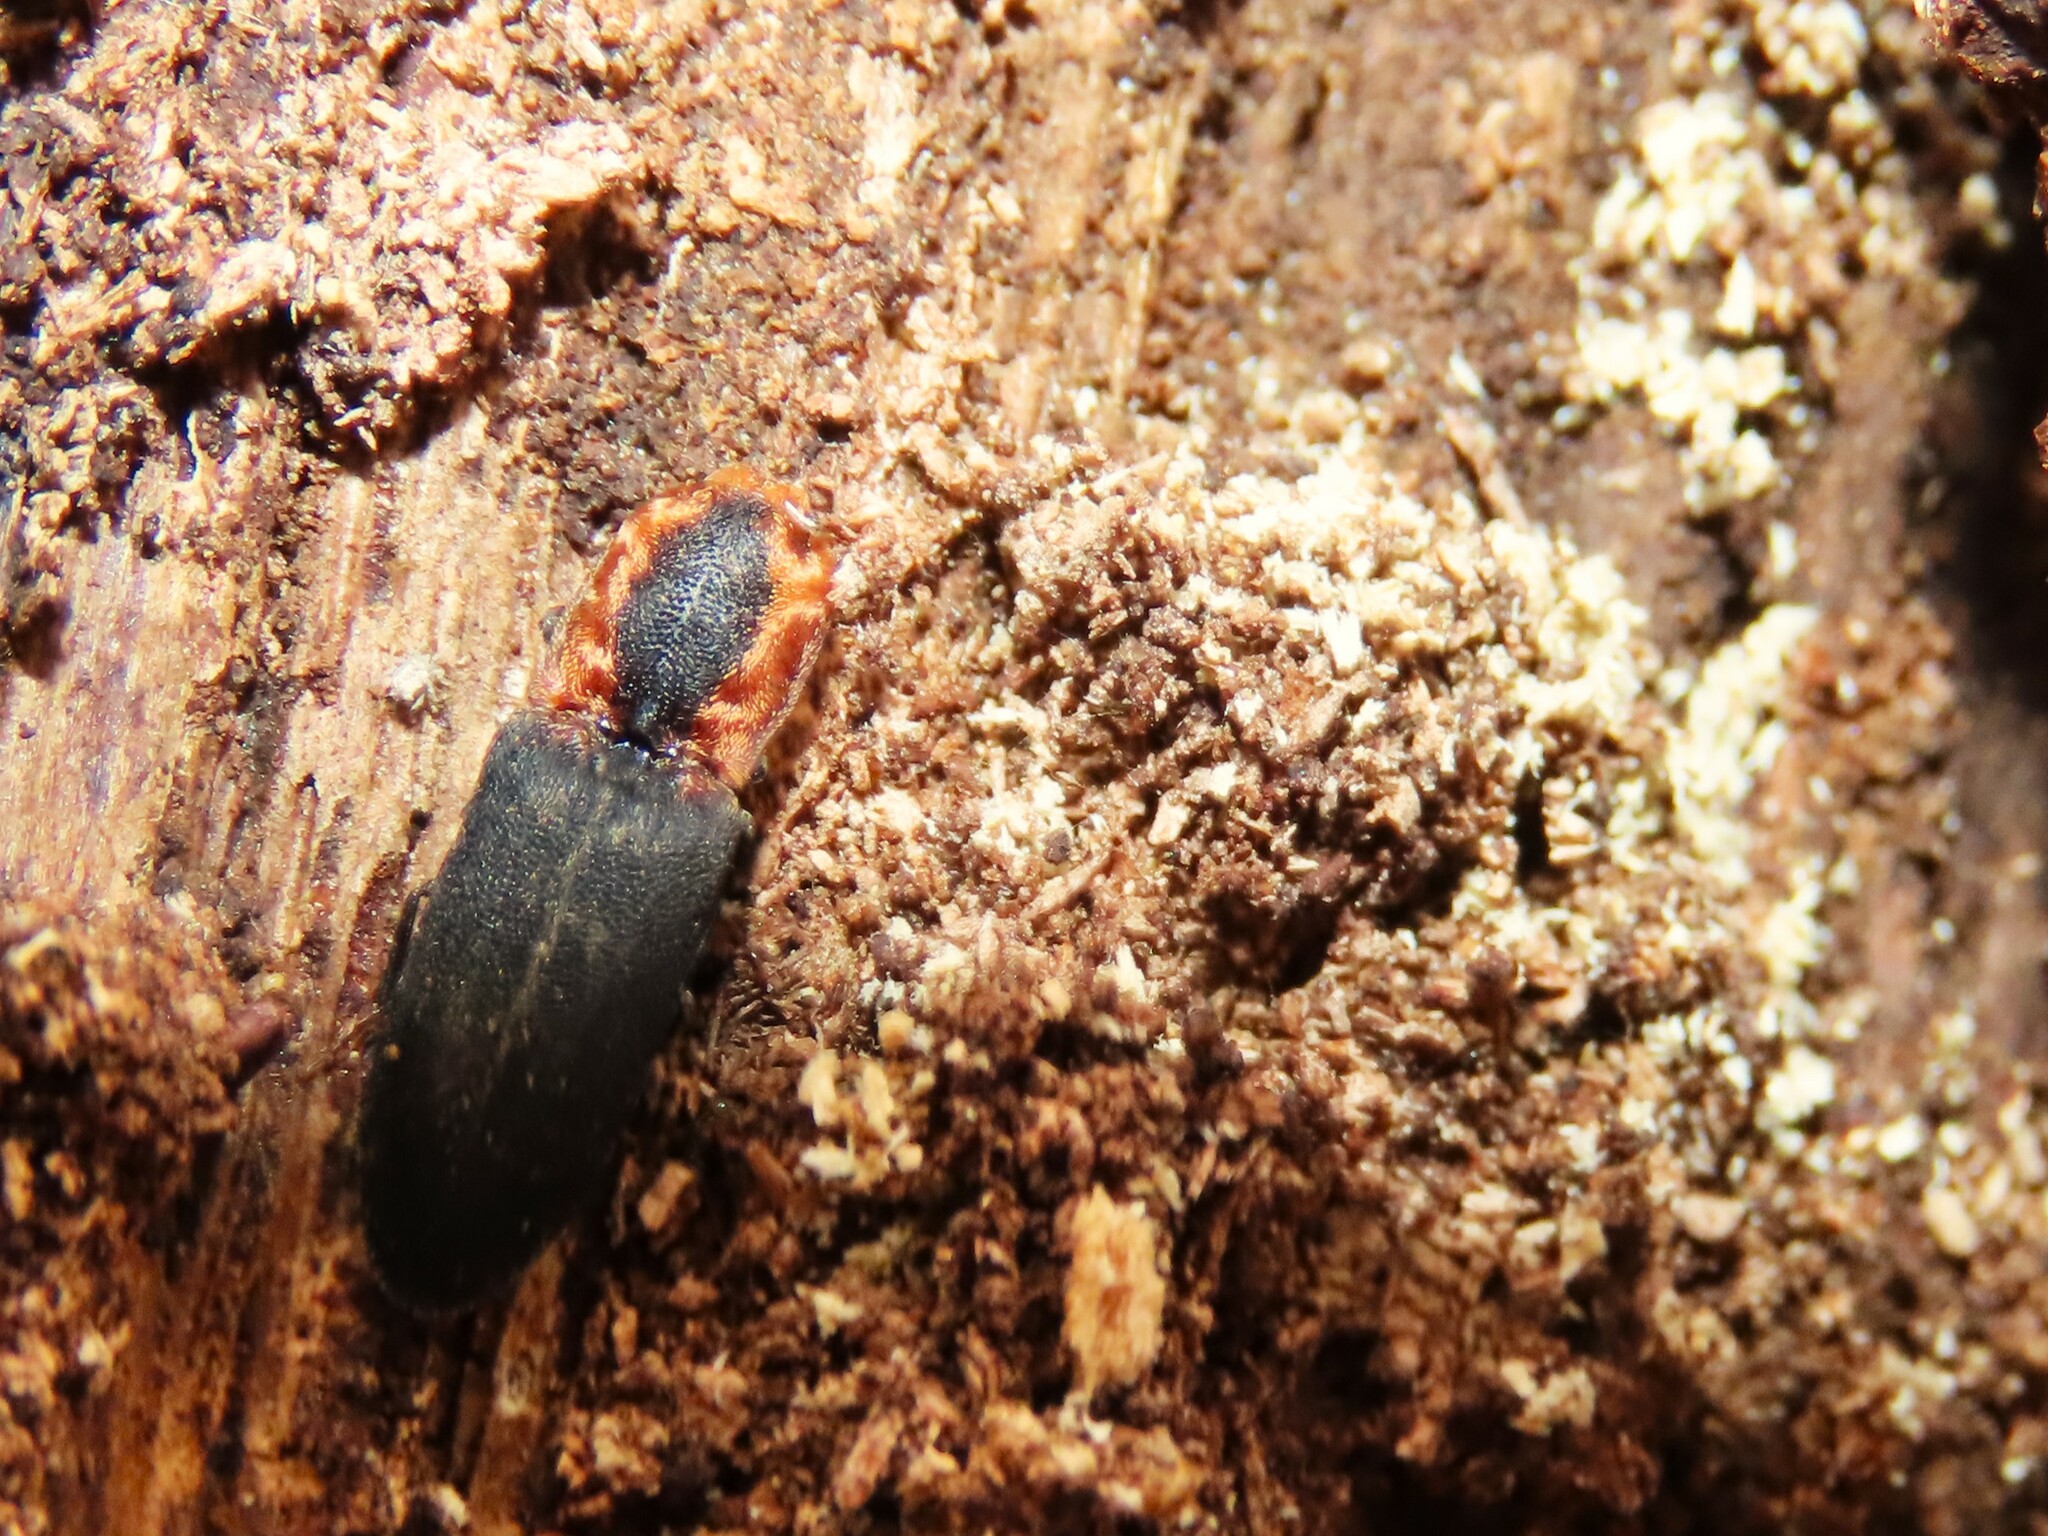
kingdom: Animalia
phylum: Arthropoda
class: Insecta
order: Coleoptera
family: Elateridae
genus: Lacon
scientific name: Lacon discoideus
